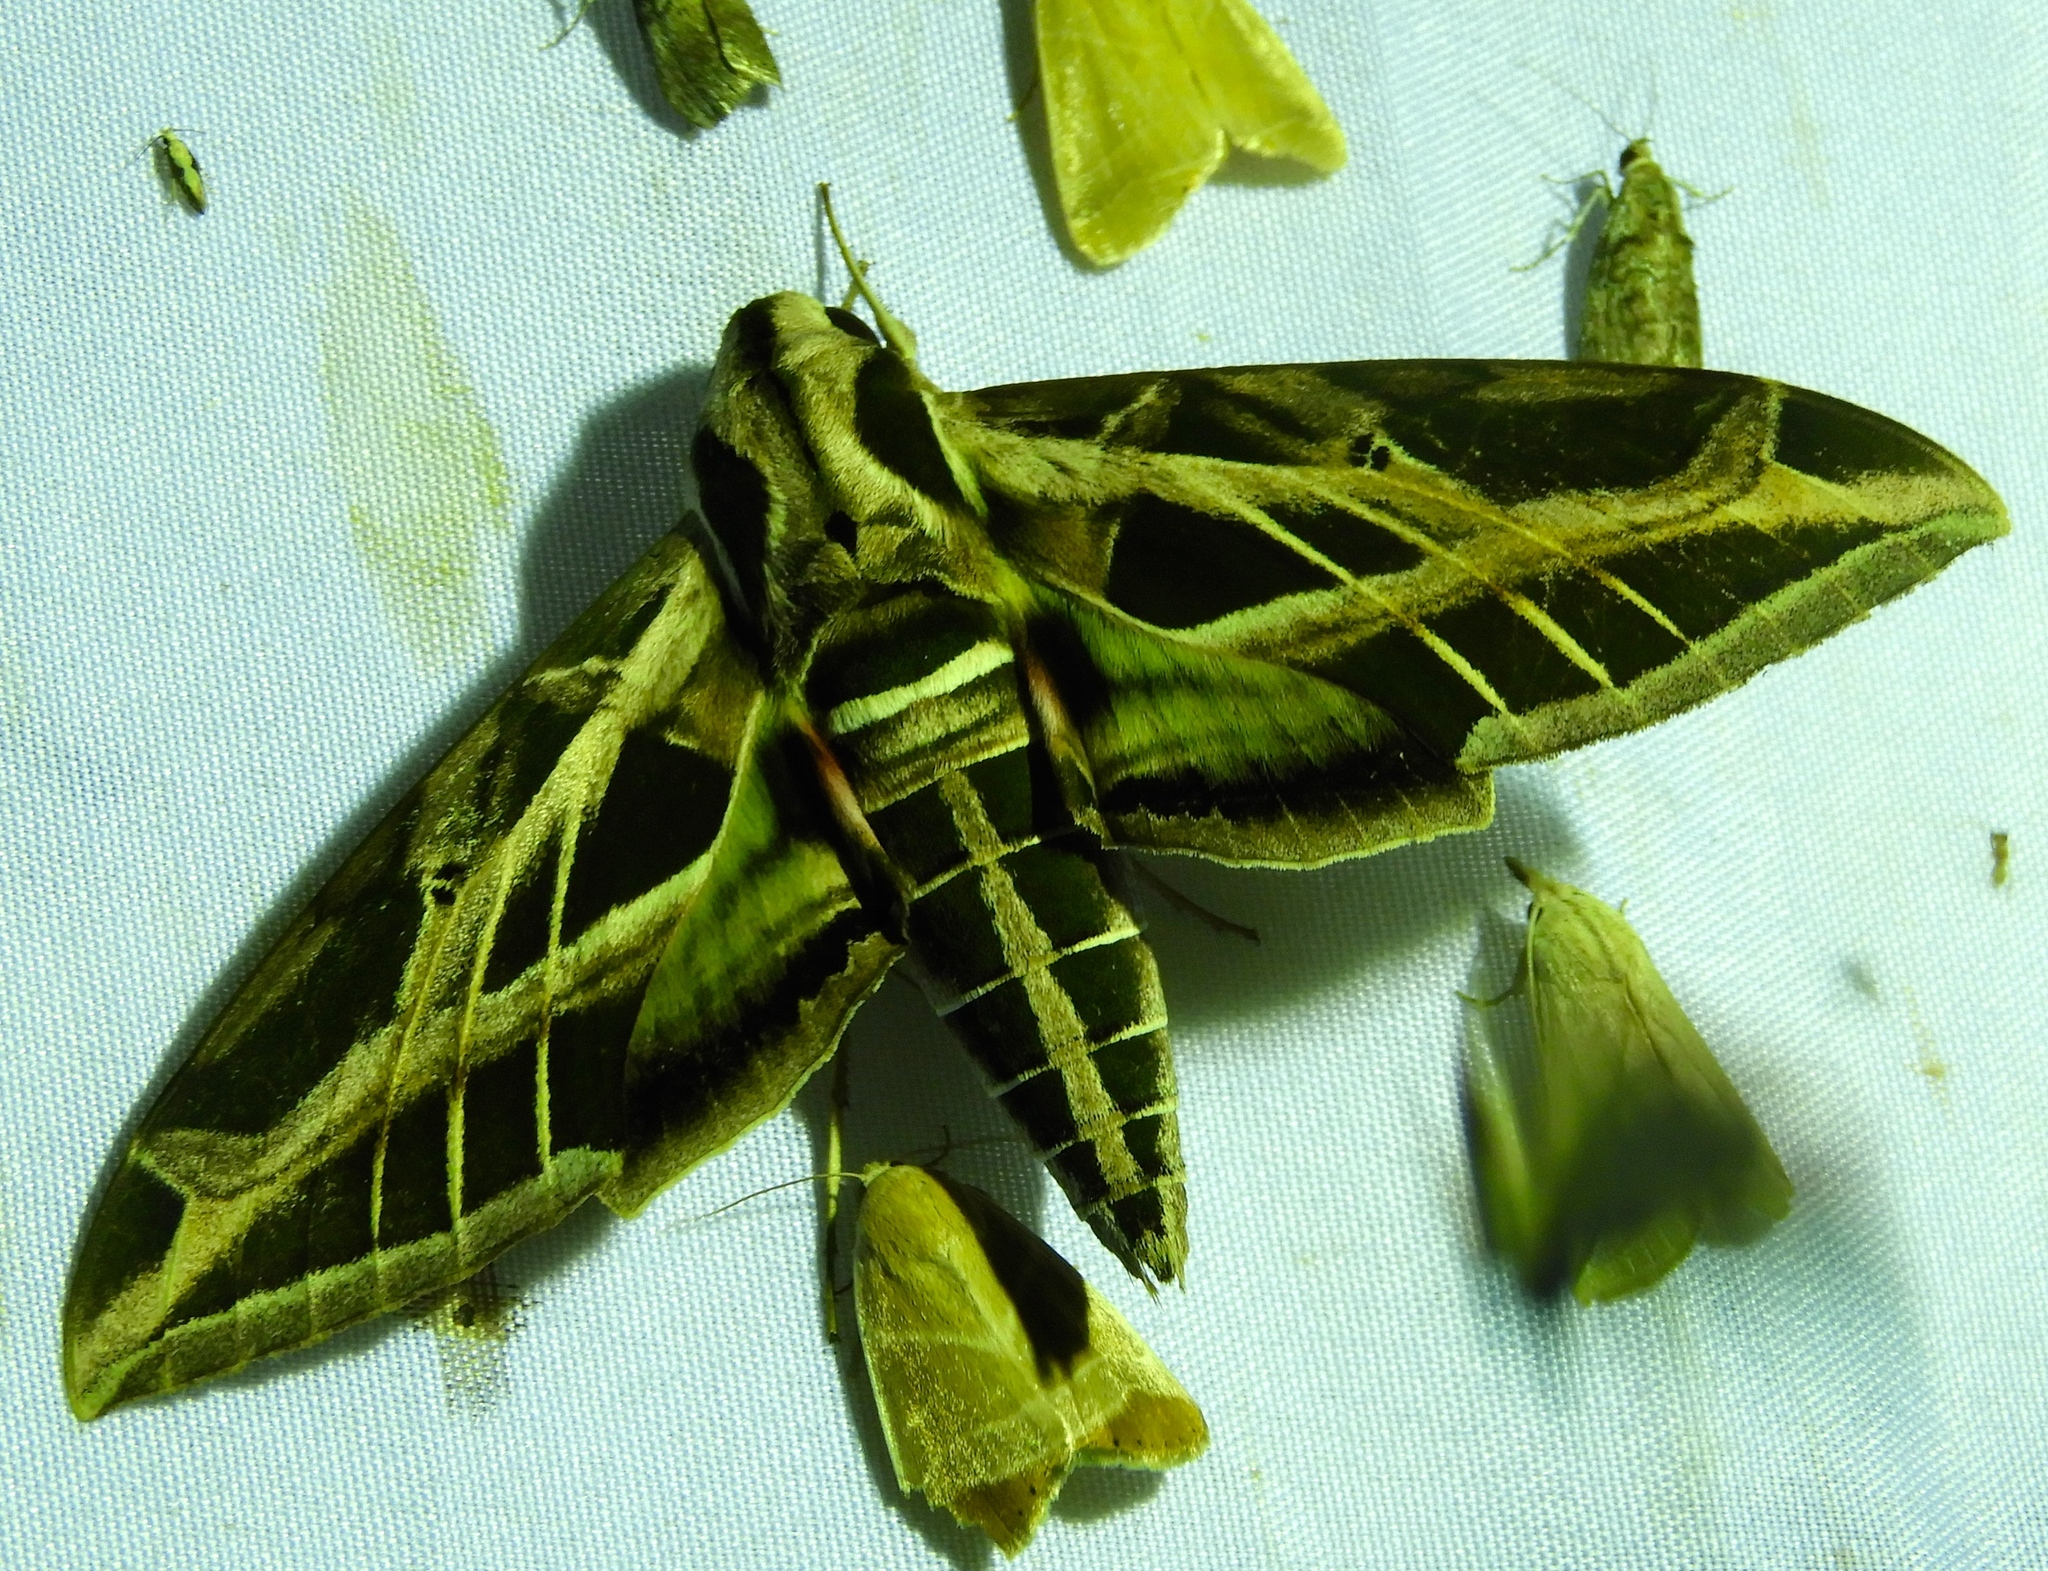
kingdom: Animalia
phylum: Arthropoda
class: Insecta
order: Lepidoptera
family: Sphingidae
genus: Eumorpha
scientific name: Eumorpha vitis
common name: Vine sphinx
